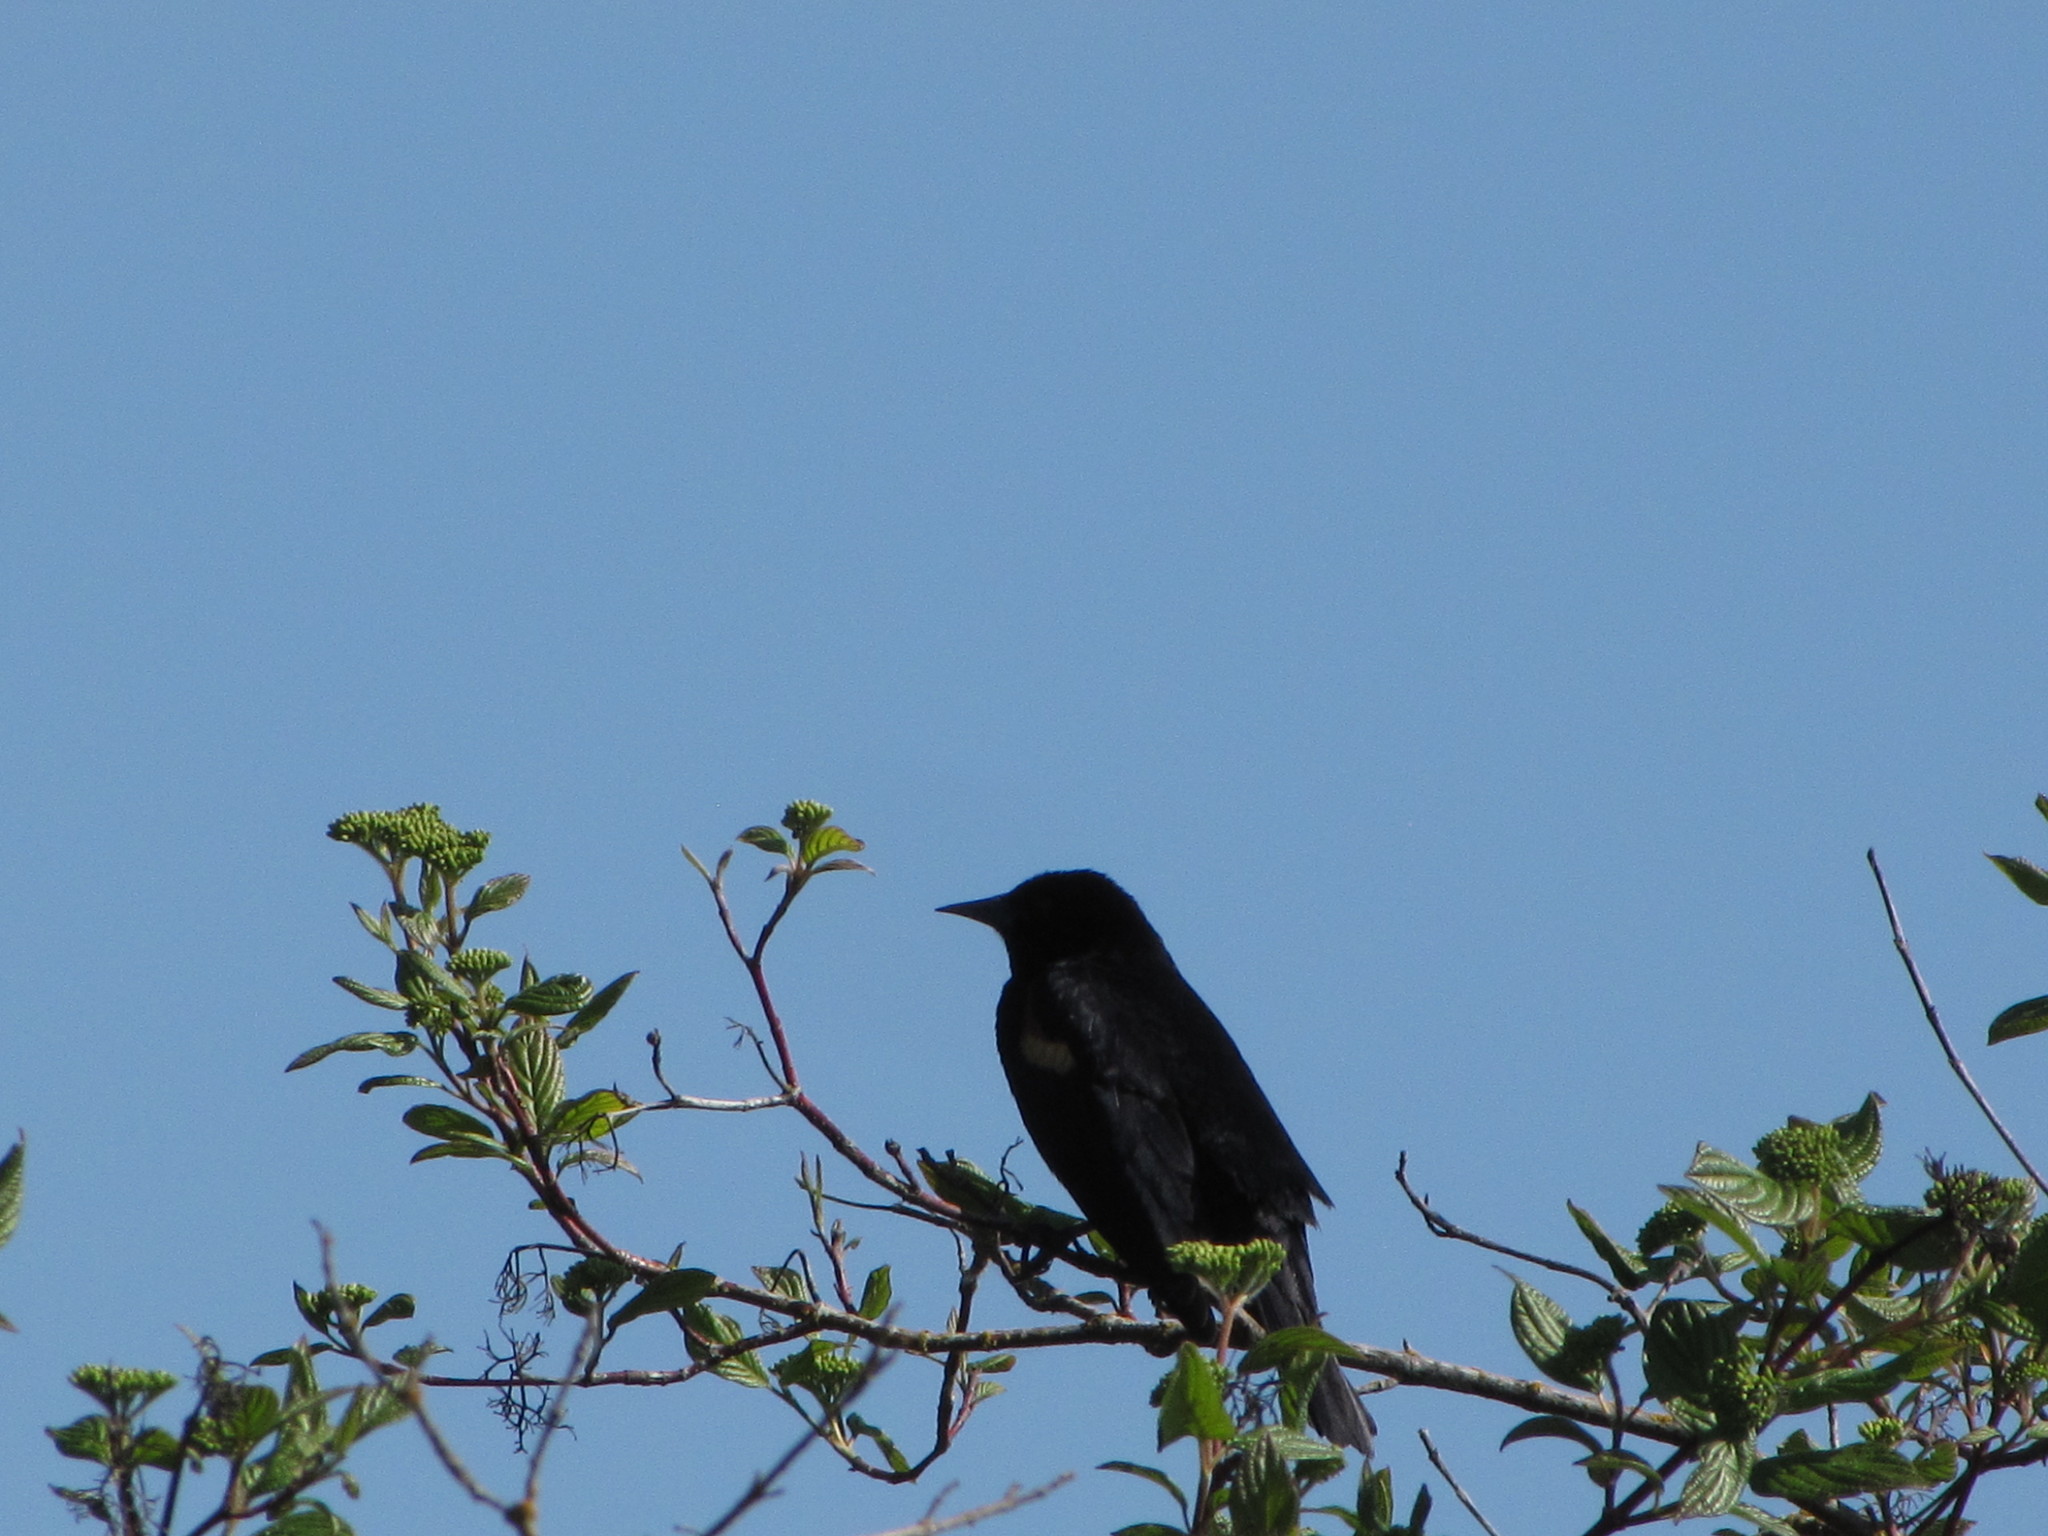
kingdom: Animalia
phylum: Chordata
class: Aves
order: Passeriformes
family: Icteridae
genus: Agelaius
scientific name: Agelaius phoeniceus
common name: Red-winged blackbird
